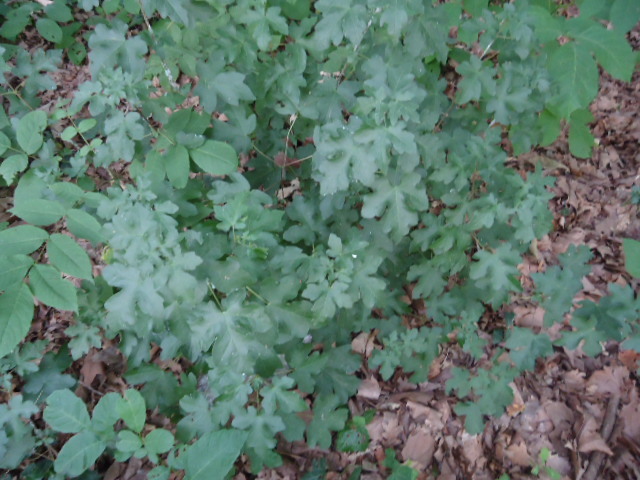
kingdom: Plantae
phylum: Tracheophyta
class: Magnoliopsida
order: Sapindales
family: Sapindaceae
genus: Acer
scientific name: Acer campestre
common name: Field maple
